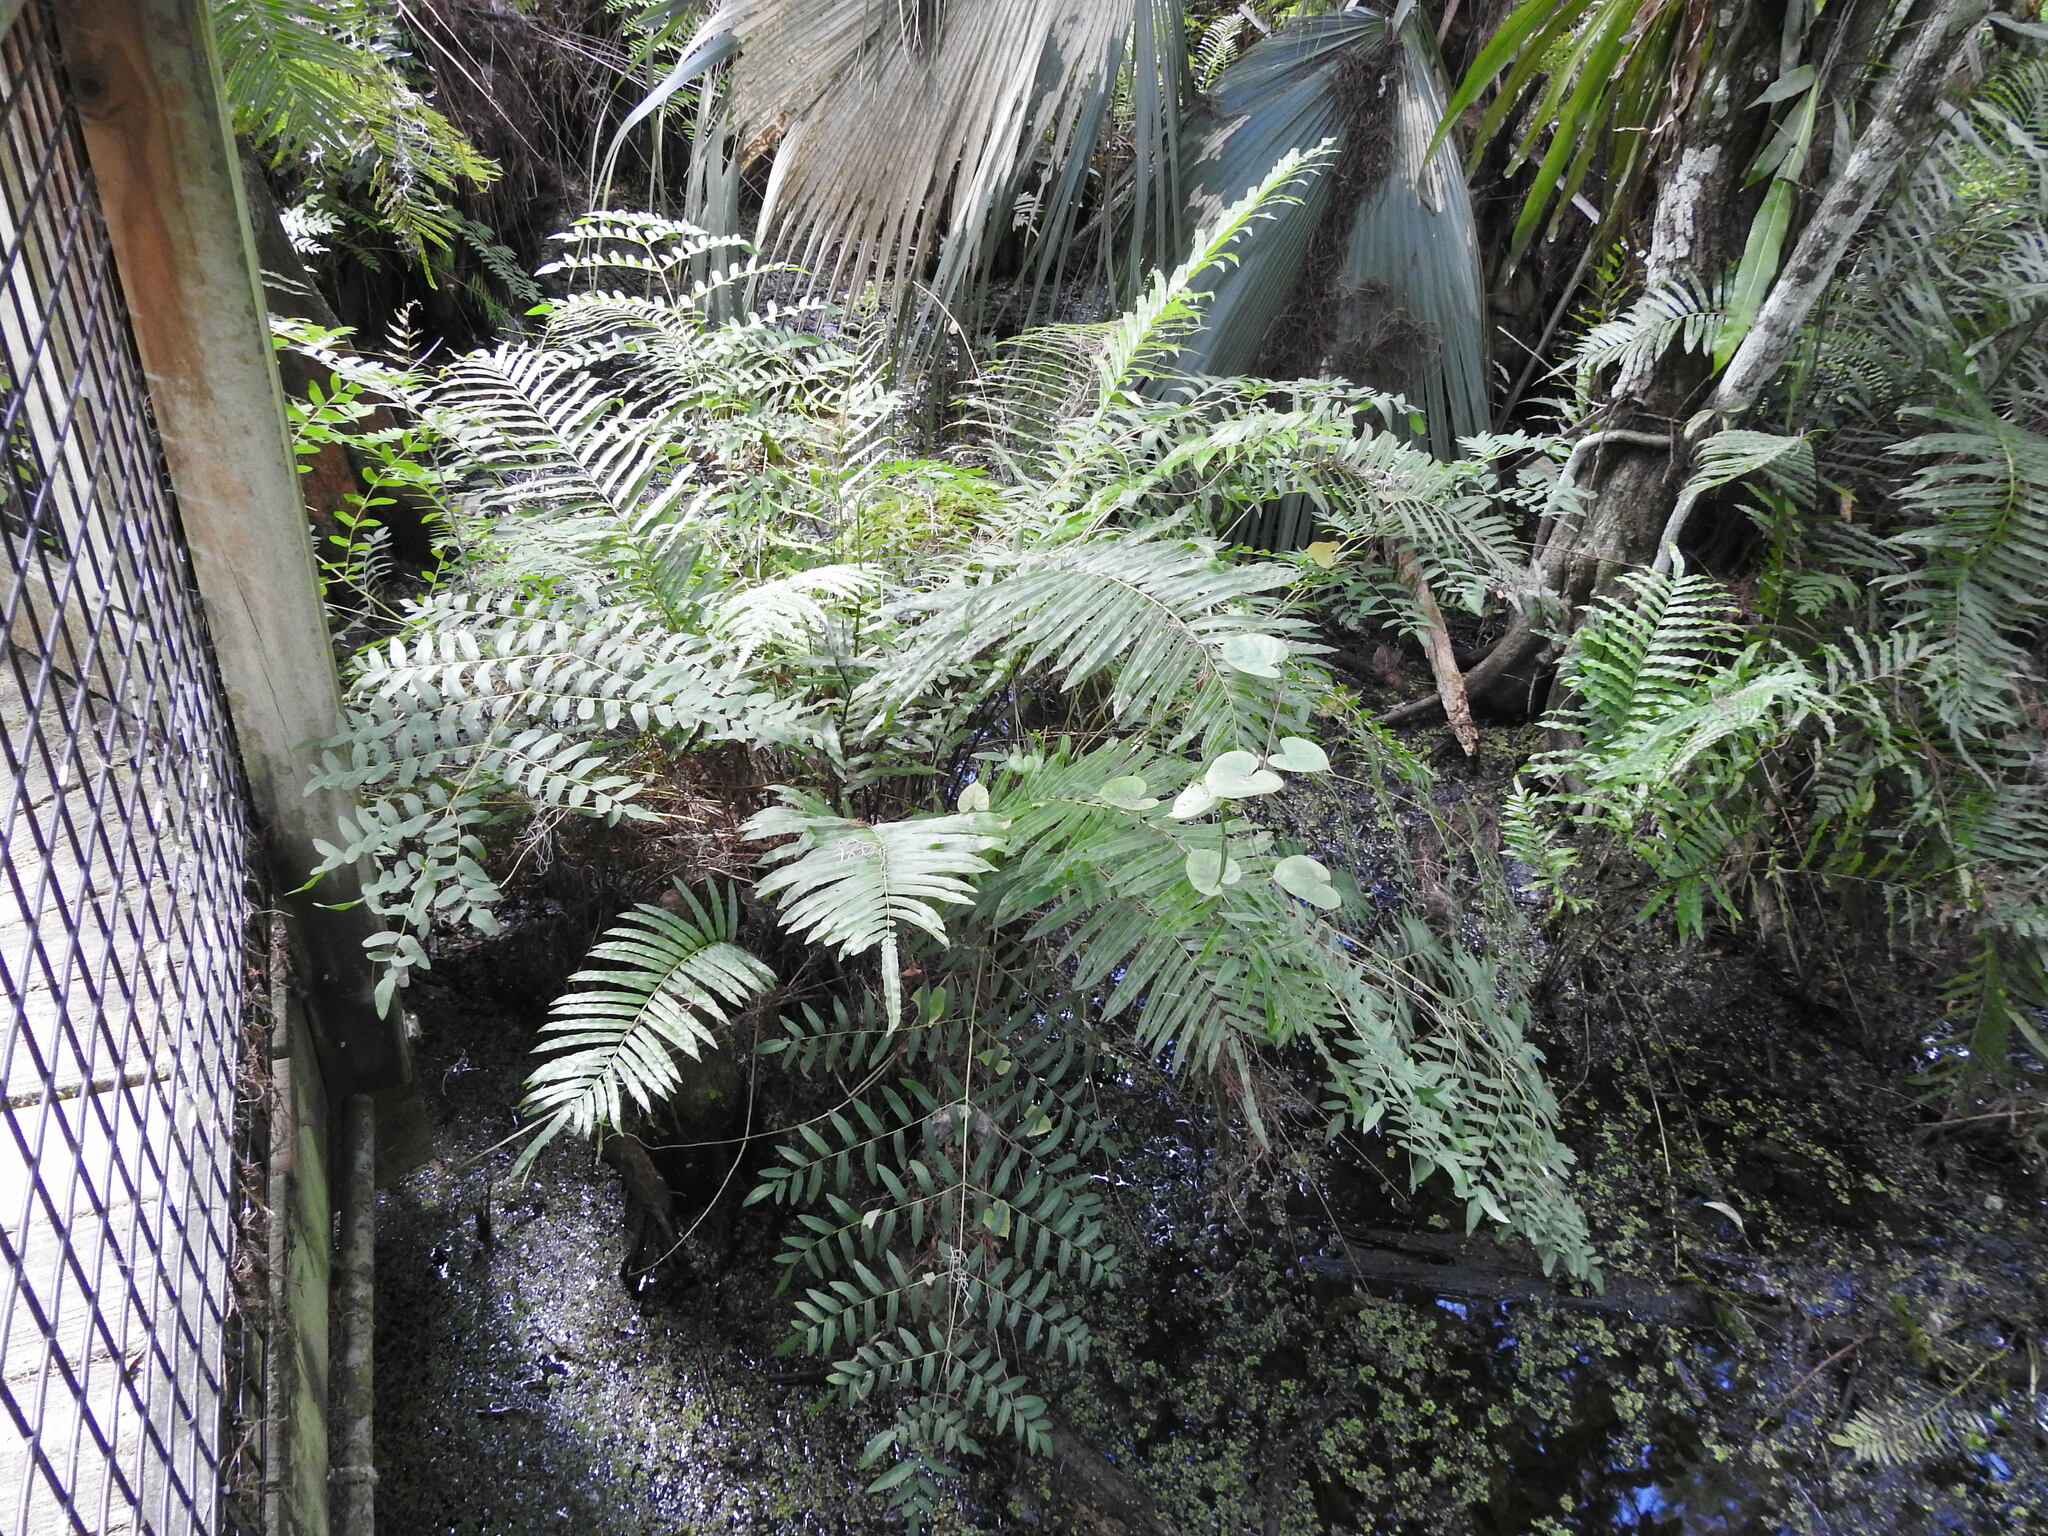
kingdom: Plantae
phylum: Tracheophyta
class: Polypodiopsida
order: Polypodiales
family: Blechnaceae
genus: Telmatoblechnum
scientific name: Telmatoblechnum serrulatum
